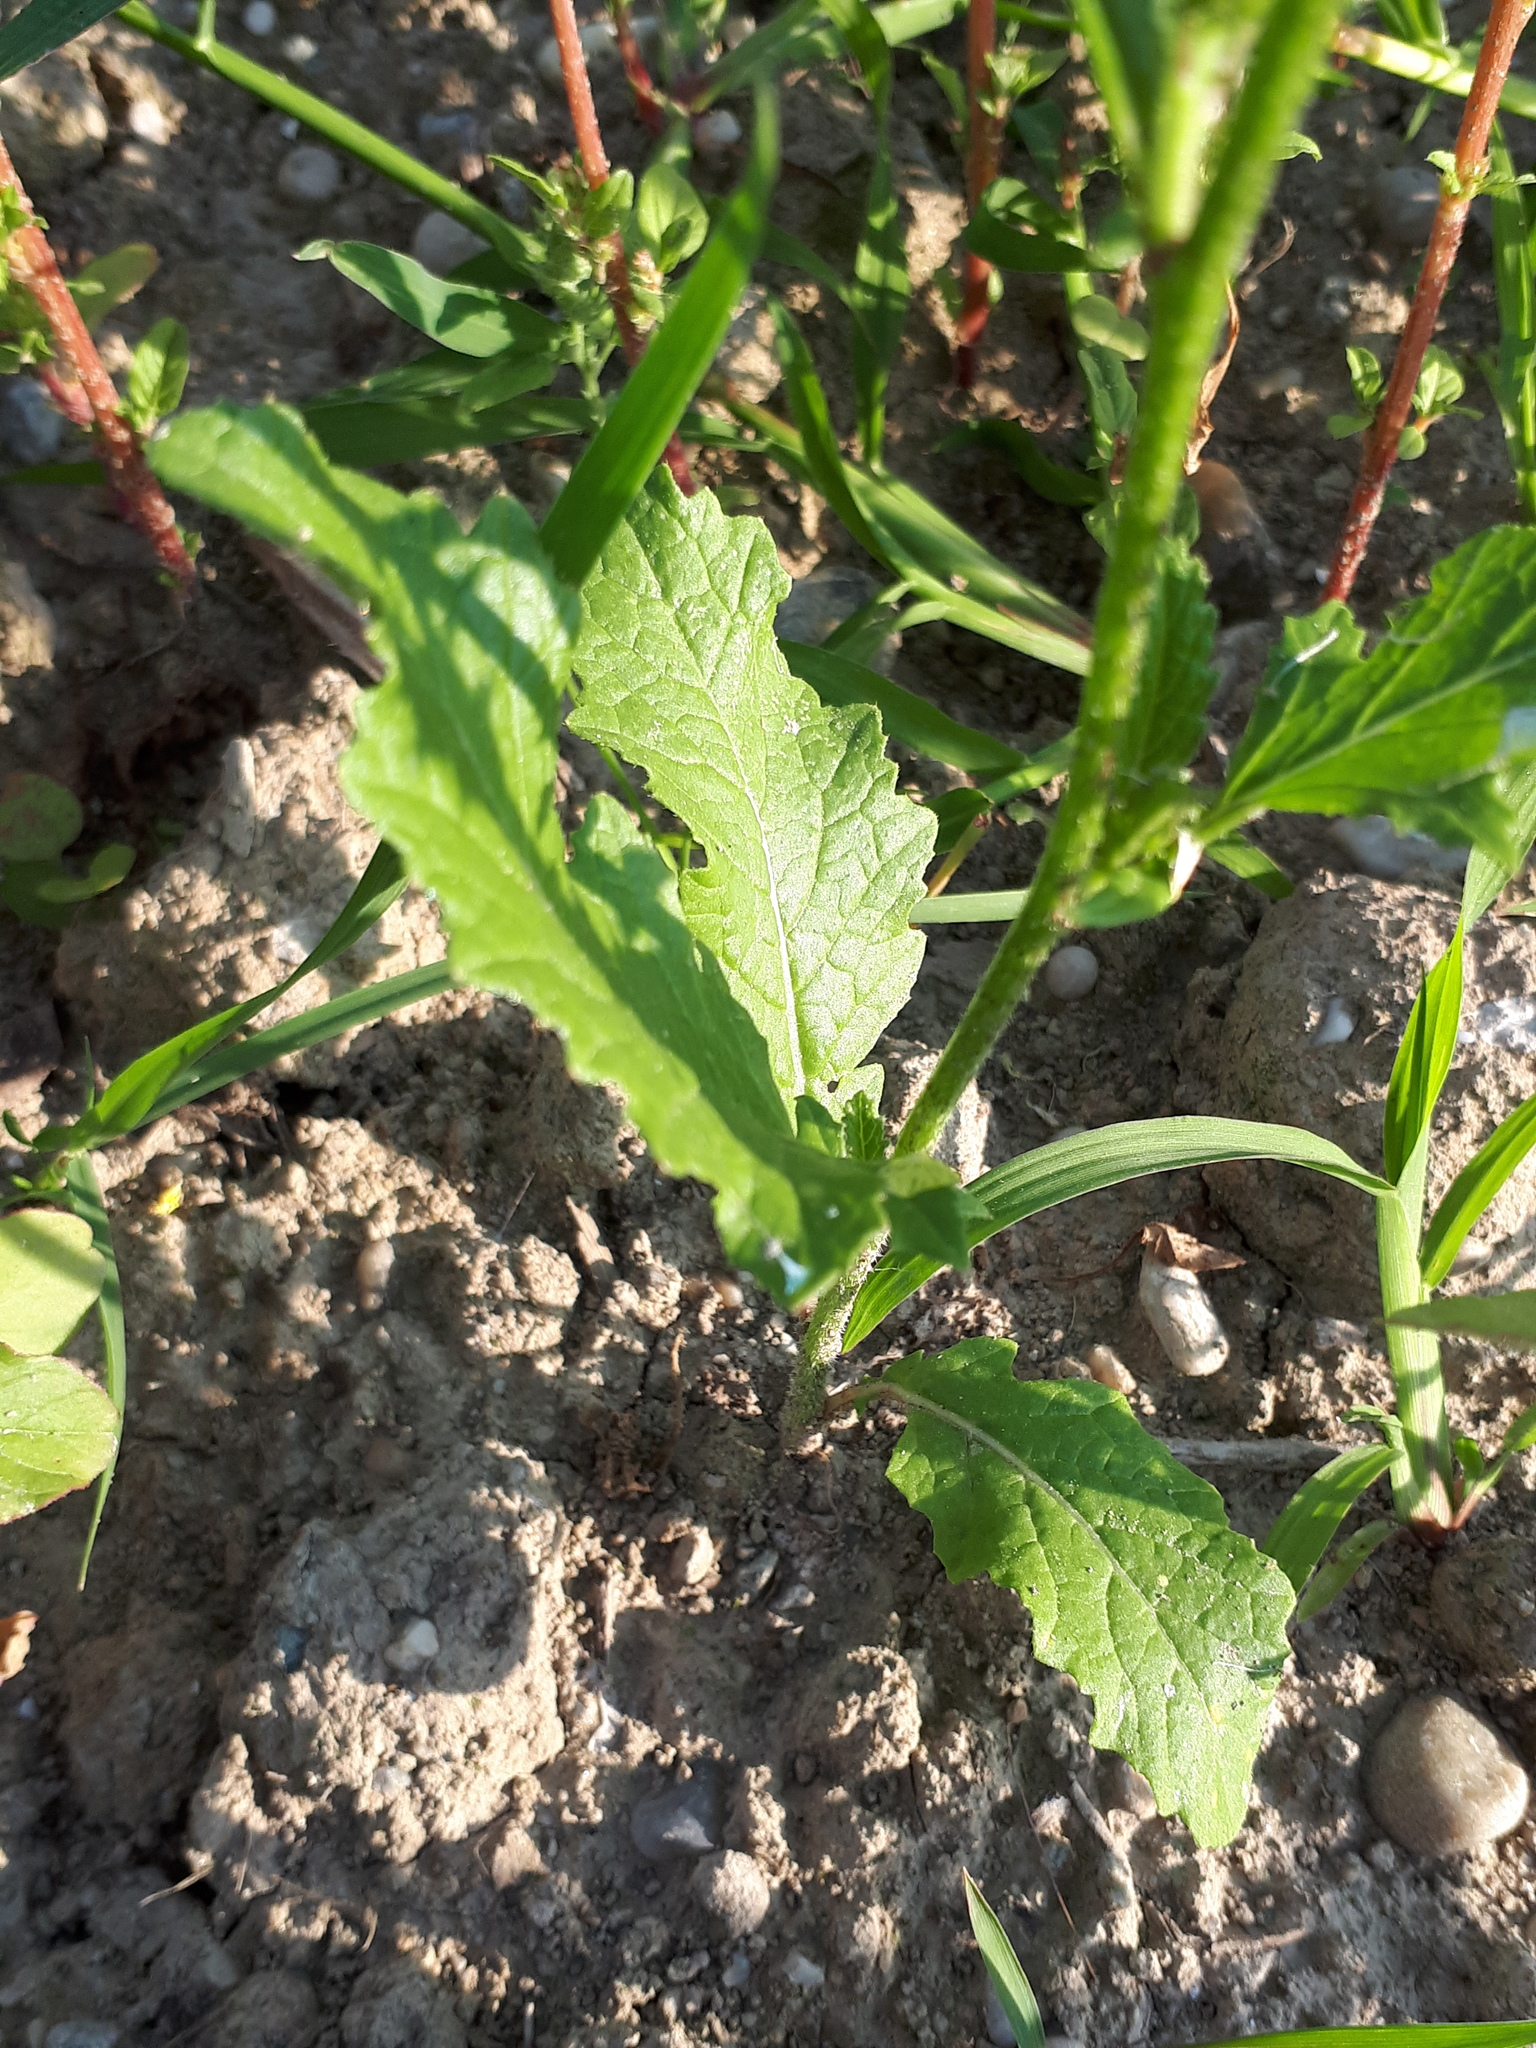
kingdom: Plantae
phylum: Tracheophyta
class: Magnoliopsida
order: Brassicales
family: Brassicaceae
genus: Sinapis
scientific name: Sinapis arvensis
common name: Charlock
